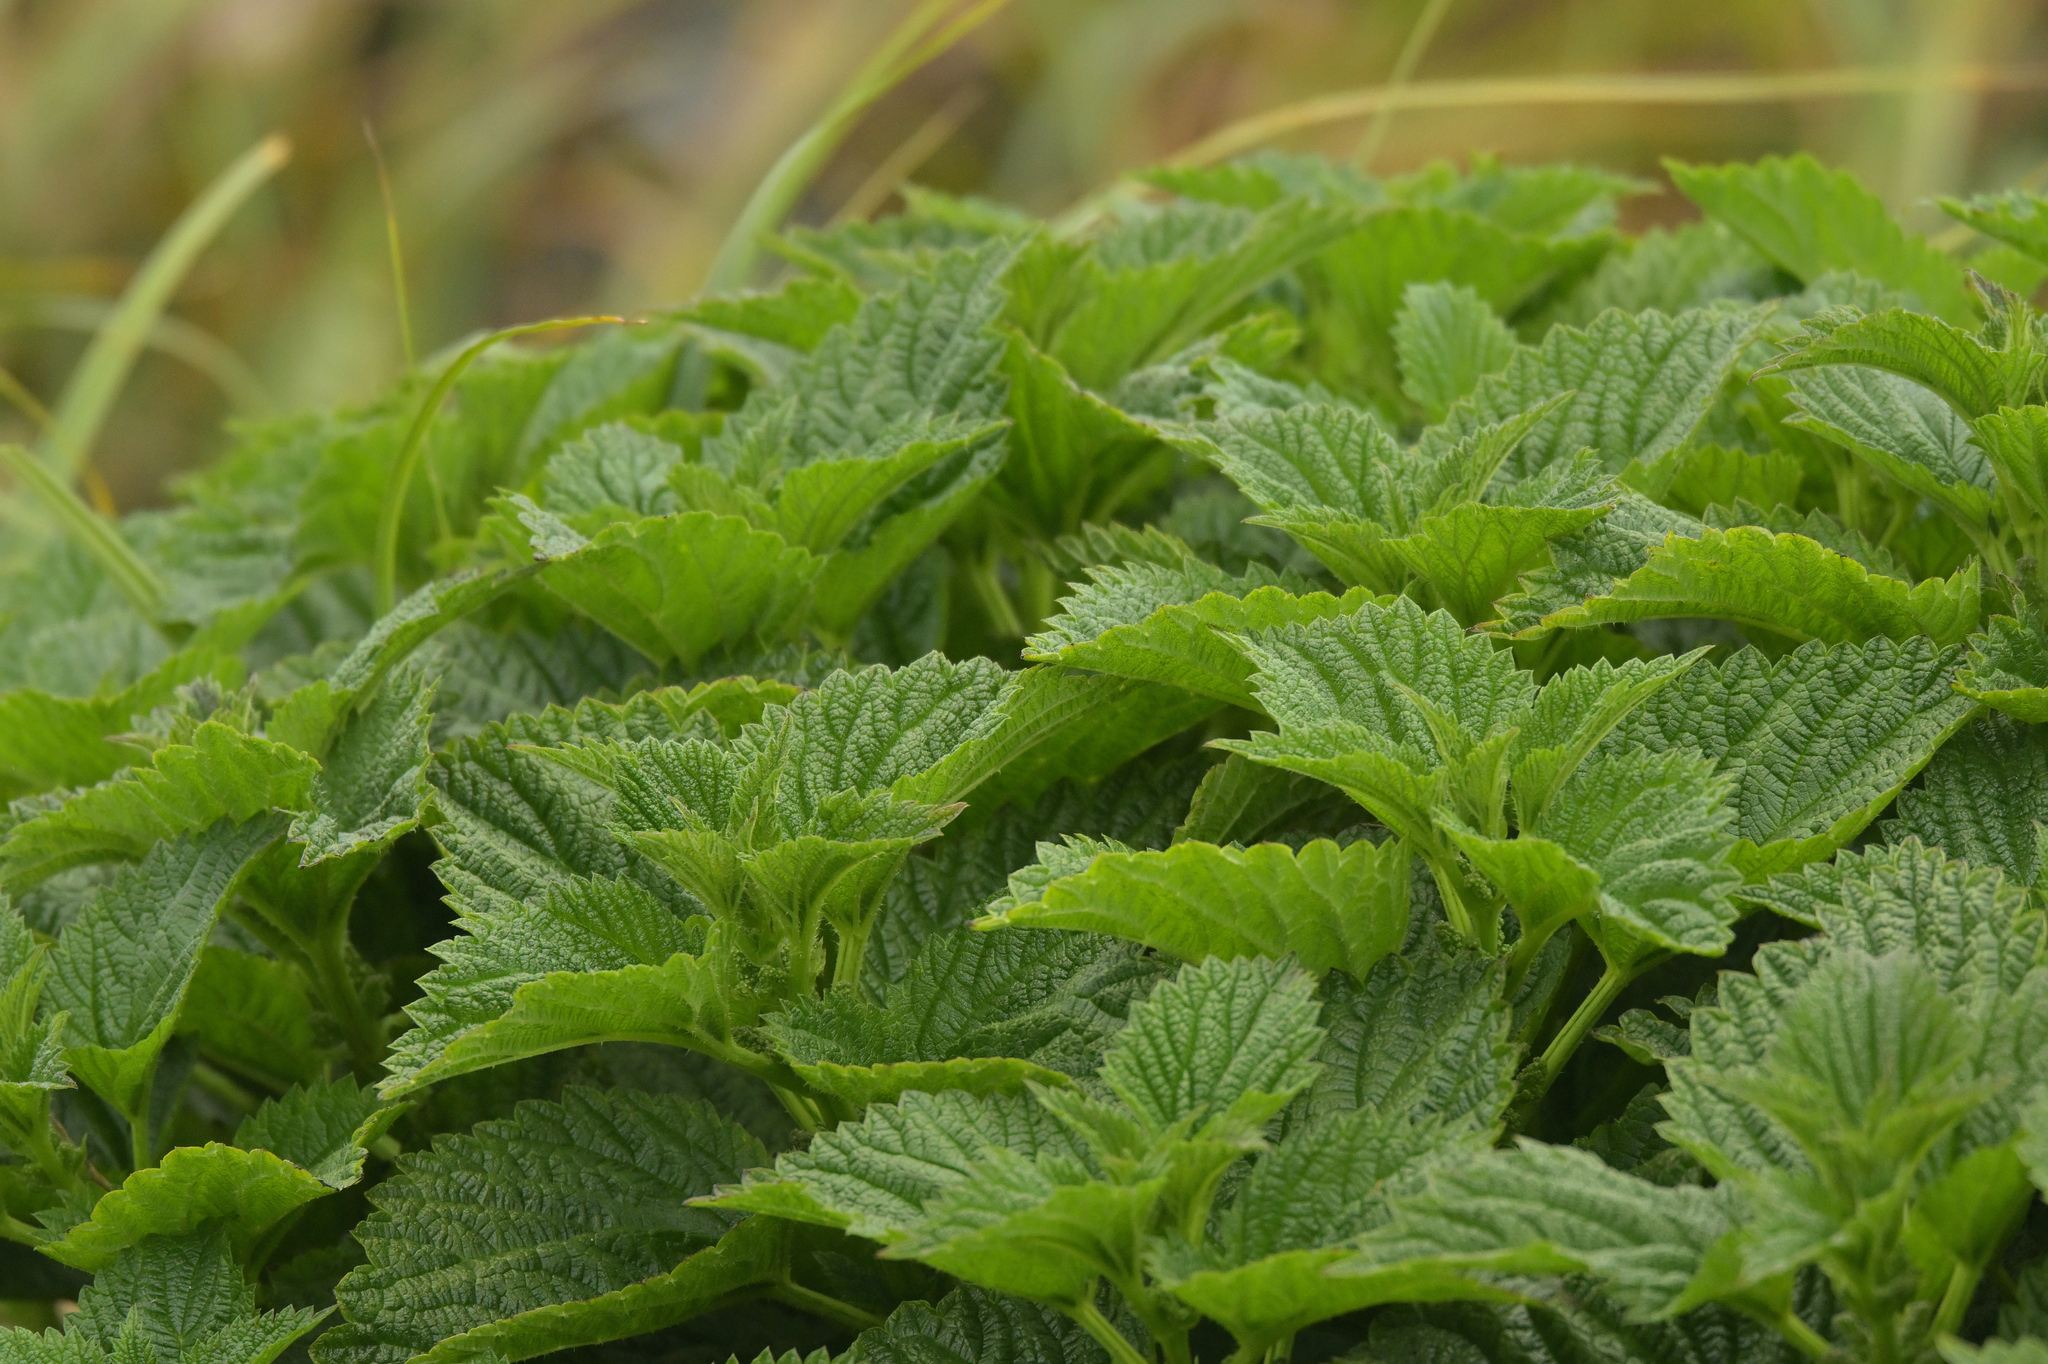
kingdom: Plantae
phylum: Tracheophyta
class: Magnoliopsida
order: Rosales
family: Urticaceae
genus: Urtica
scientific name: Urtica australis
